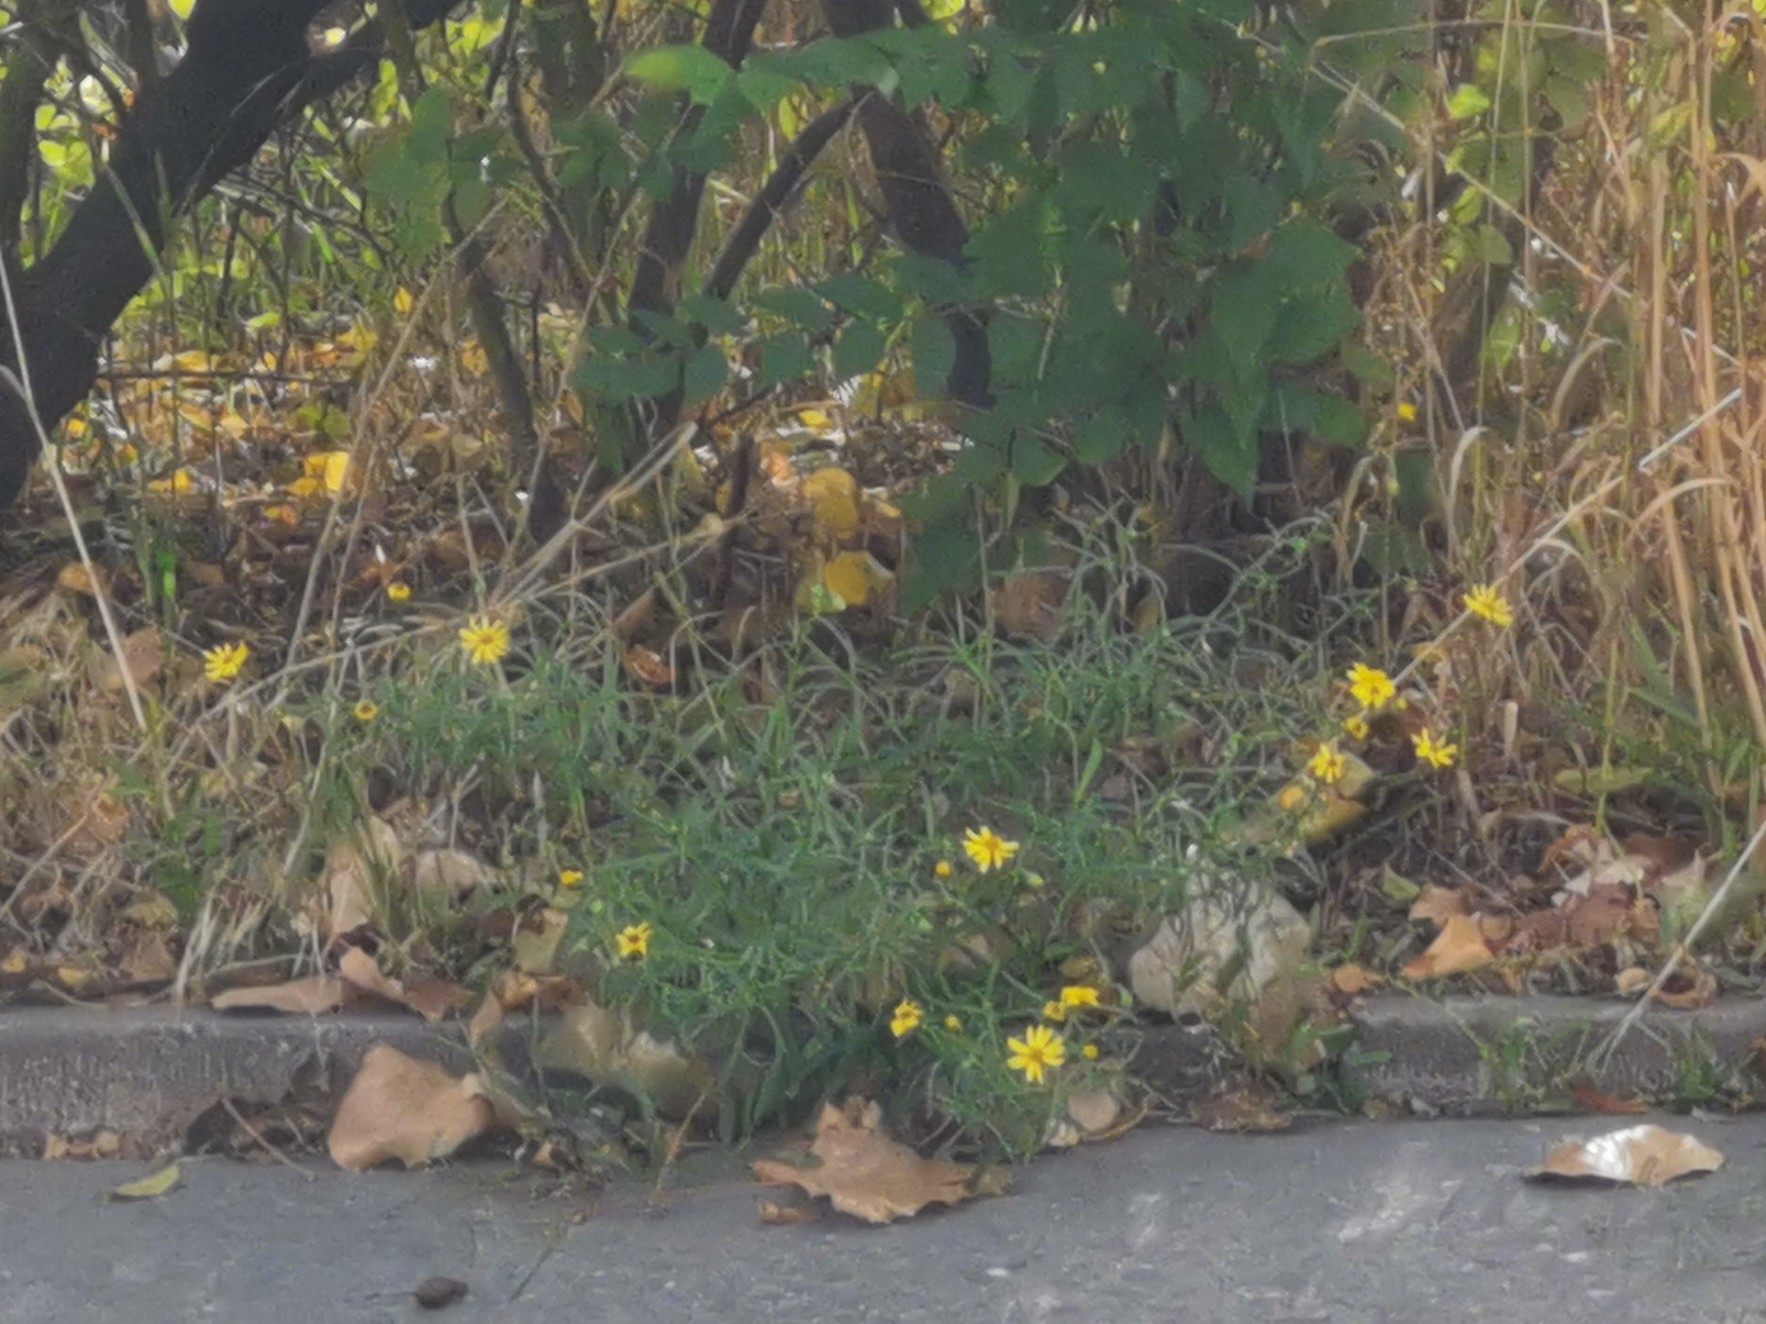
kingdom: Plantae
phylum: Tracheophyta
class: Magnoliopsida
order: Asterales
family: Asteraceae
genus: Senecio
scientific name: Senecio inaequidens
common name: Narrow-leaved ragwort
